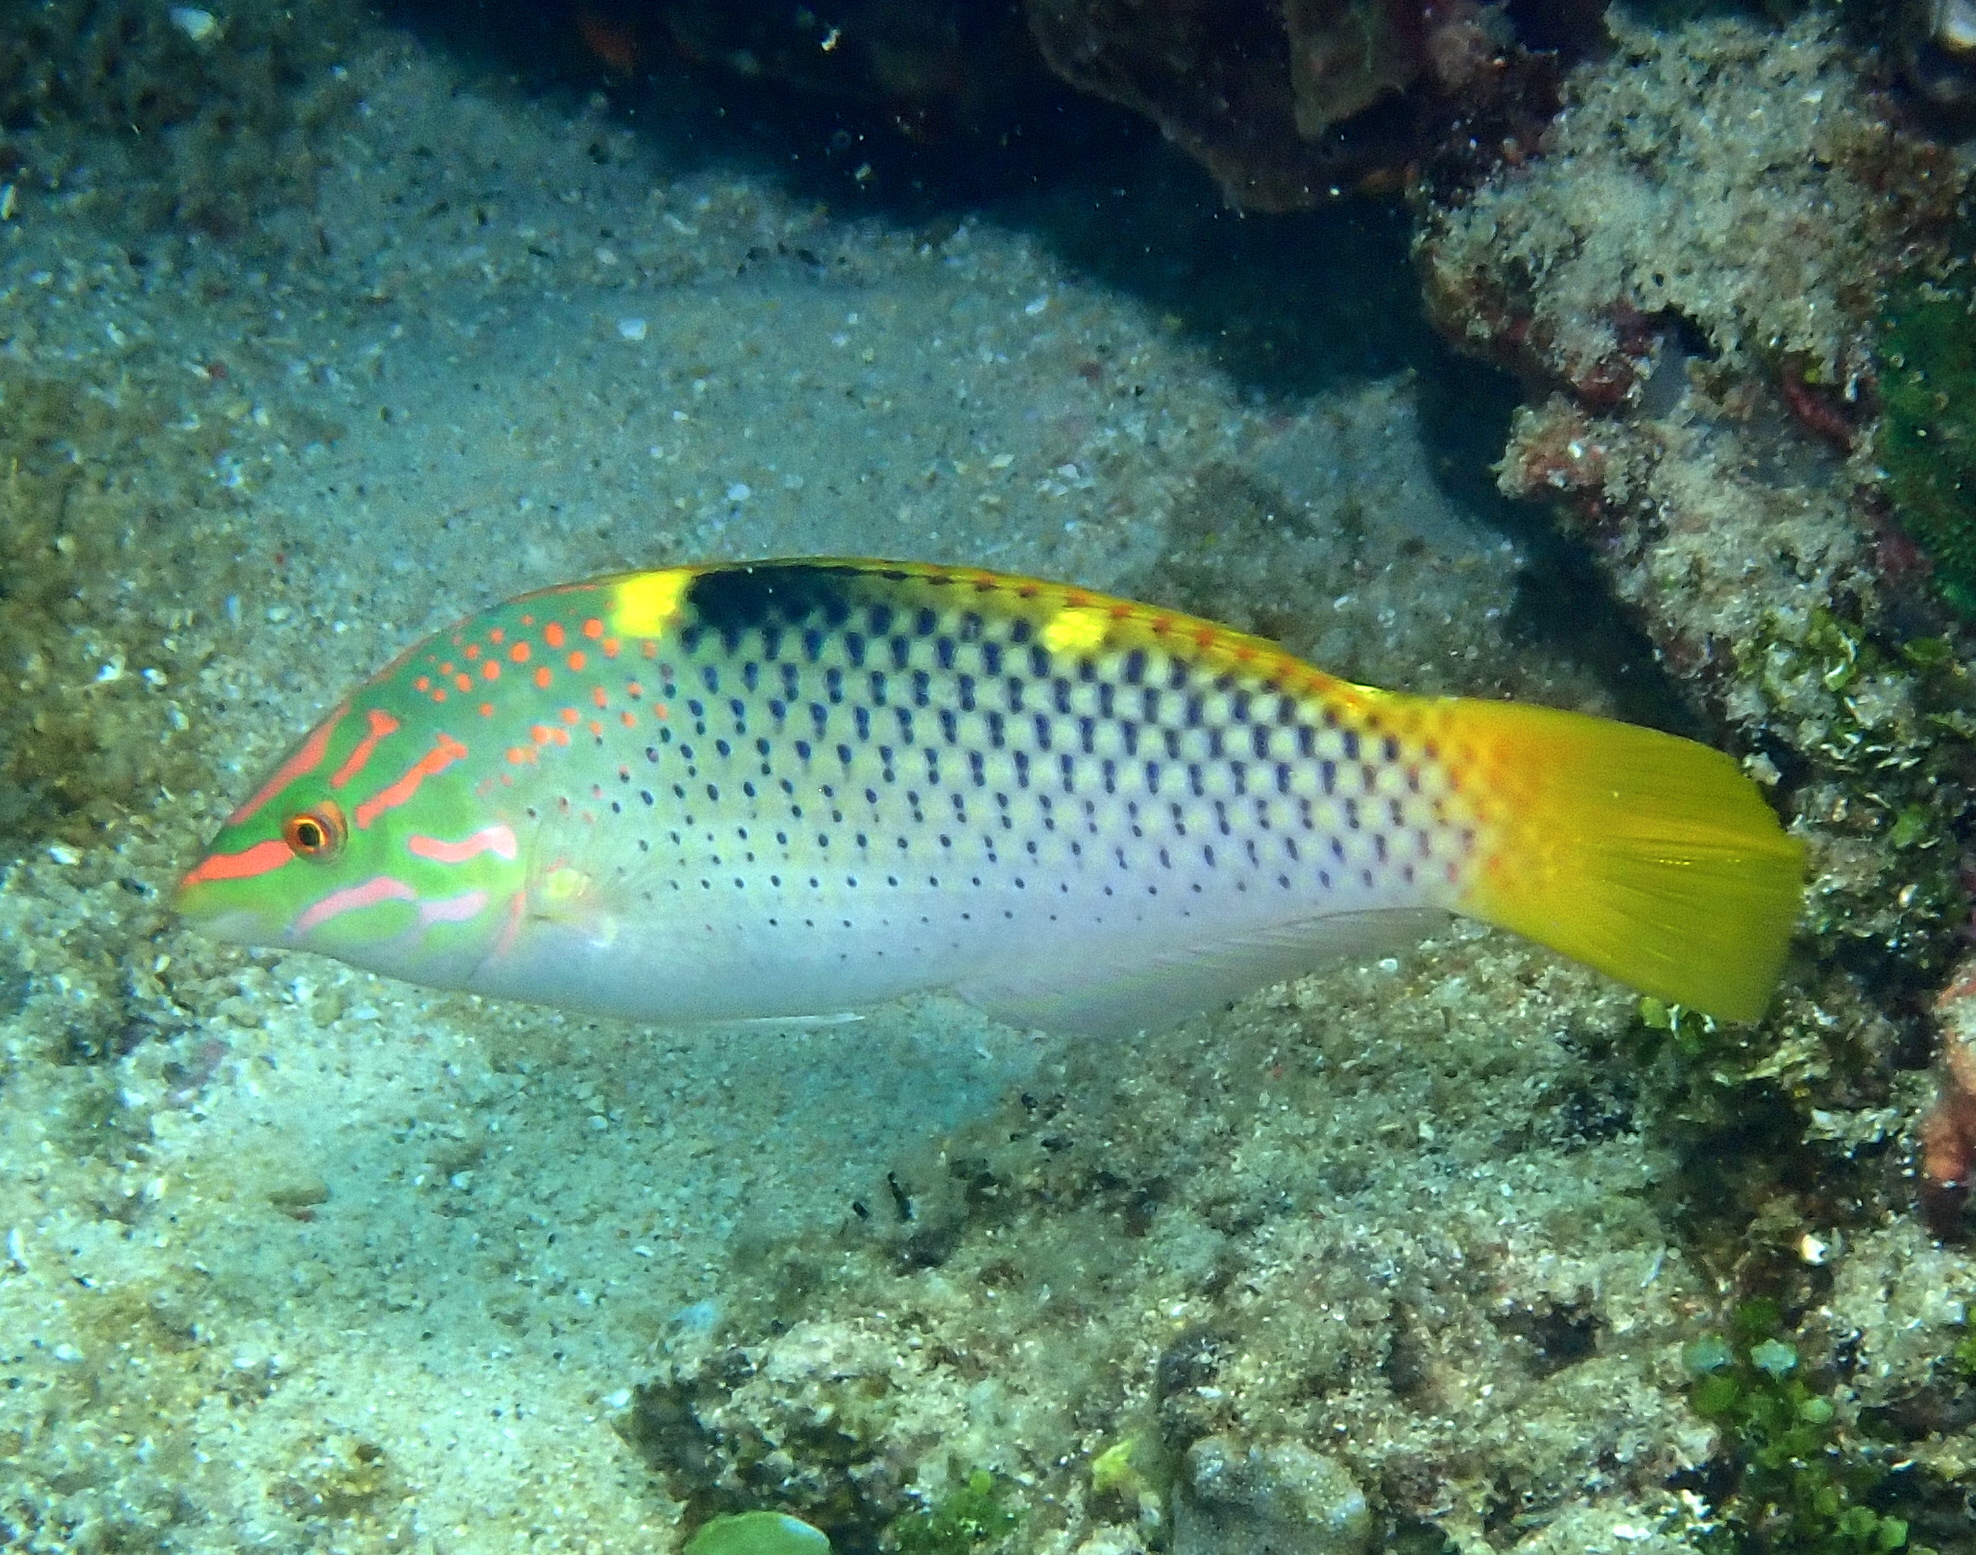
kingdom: Animalia
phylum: Chordata
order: Perciformes
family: Labridae
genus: Halichoeres
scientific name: Halichoeres hortulanus
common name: Checkerboard wrasse
